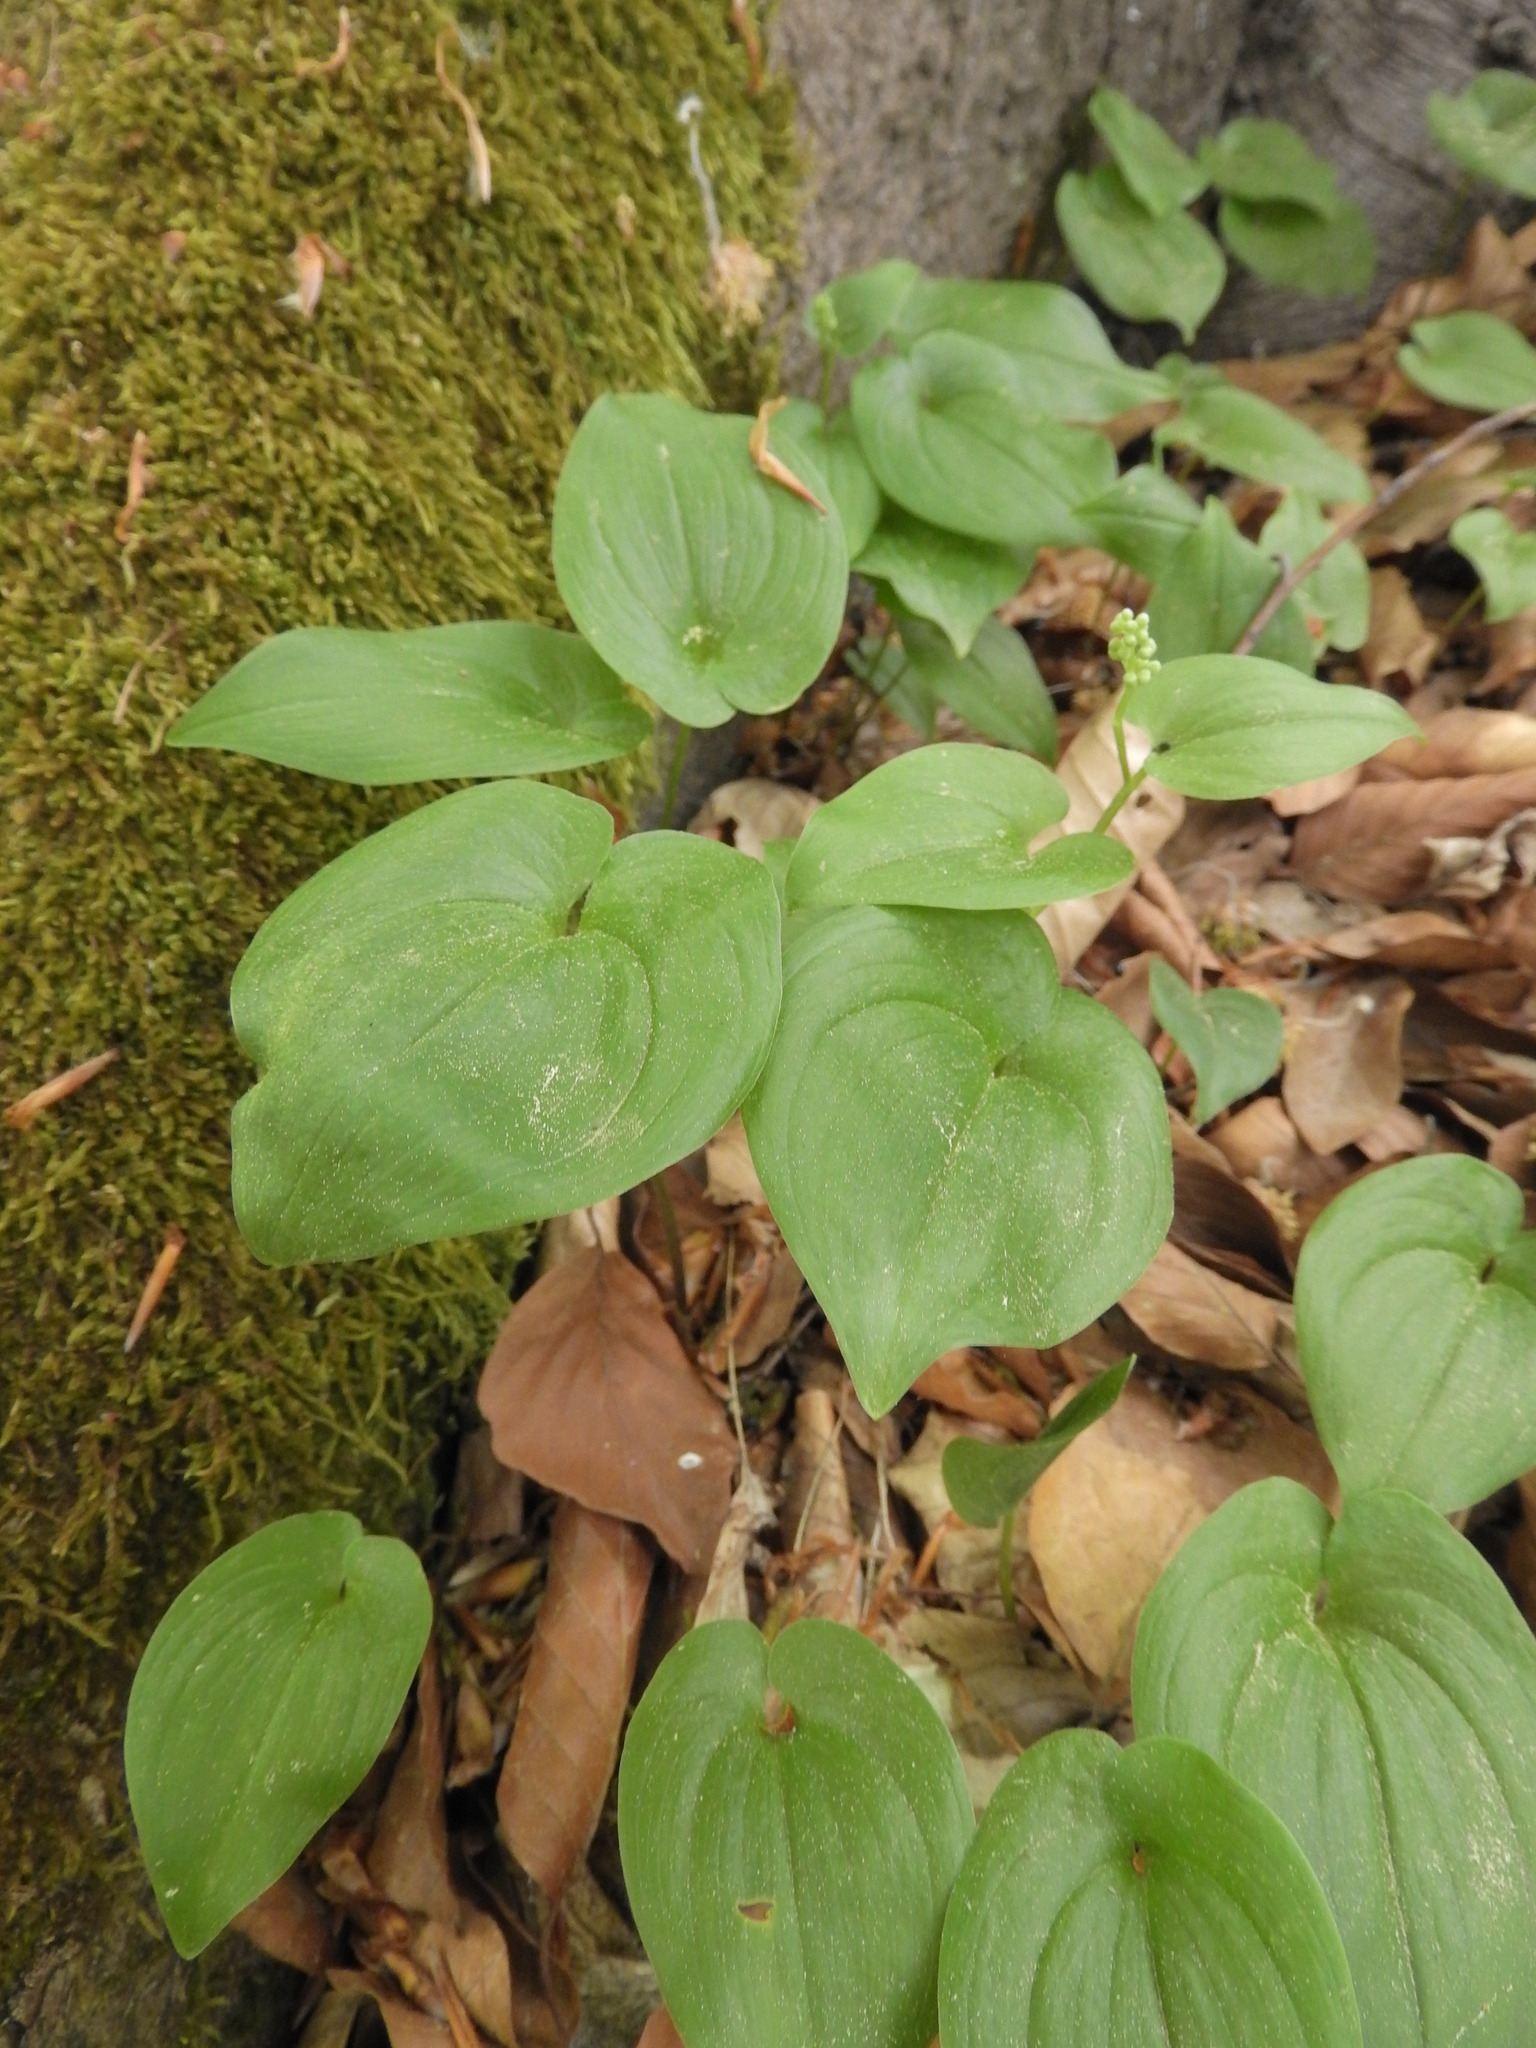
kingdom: Plantae
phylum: Tracheophyta
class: Liliopsida
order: Asparagales
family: Asparagaceae
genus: Maianthemum
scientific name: Maianthemum bifolium
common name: May lily
